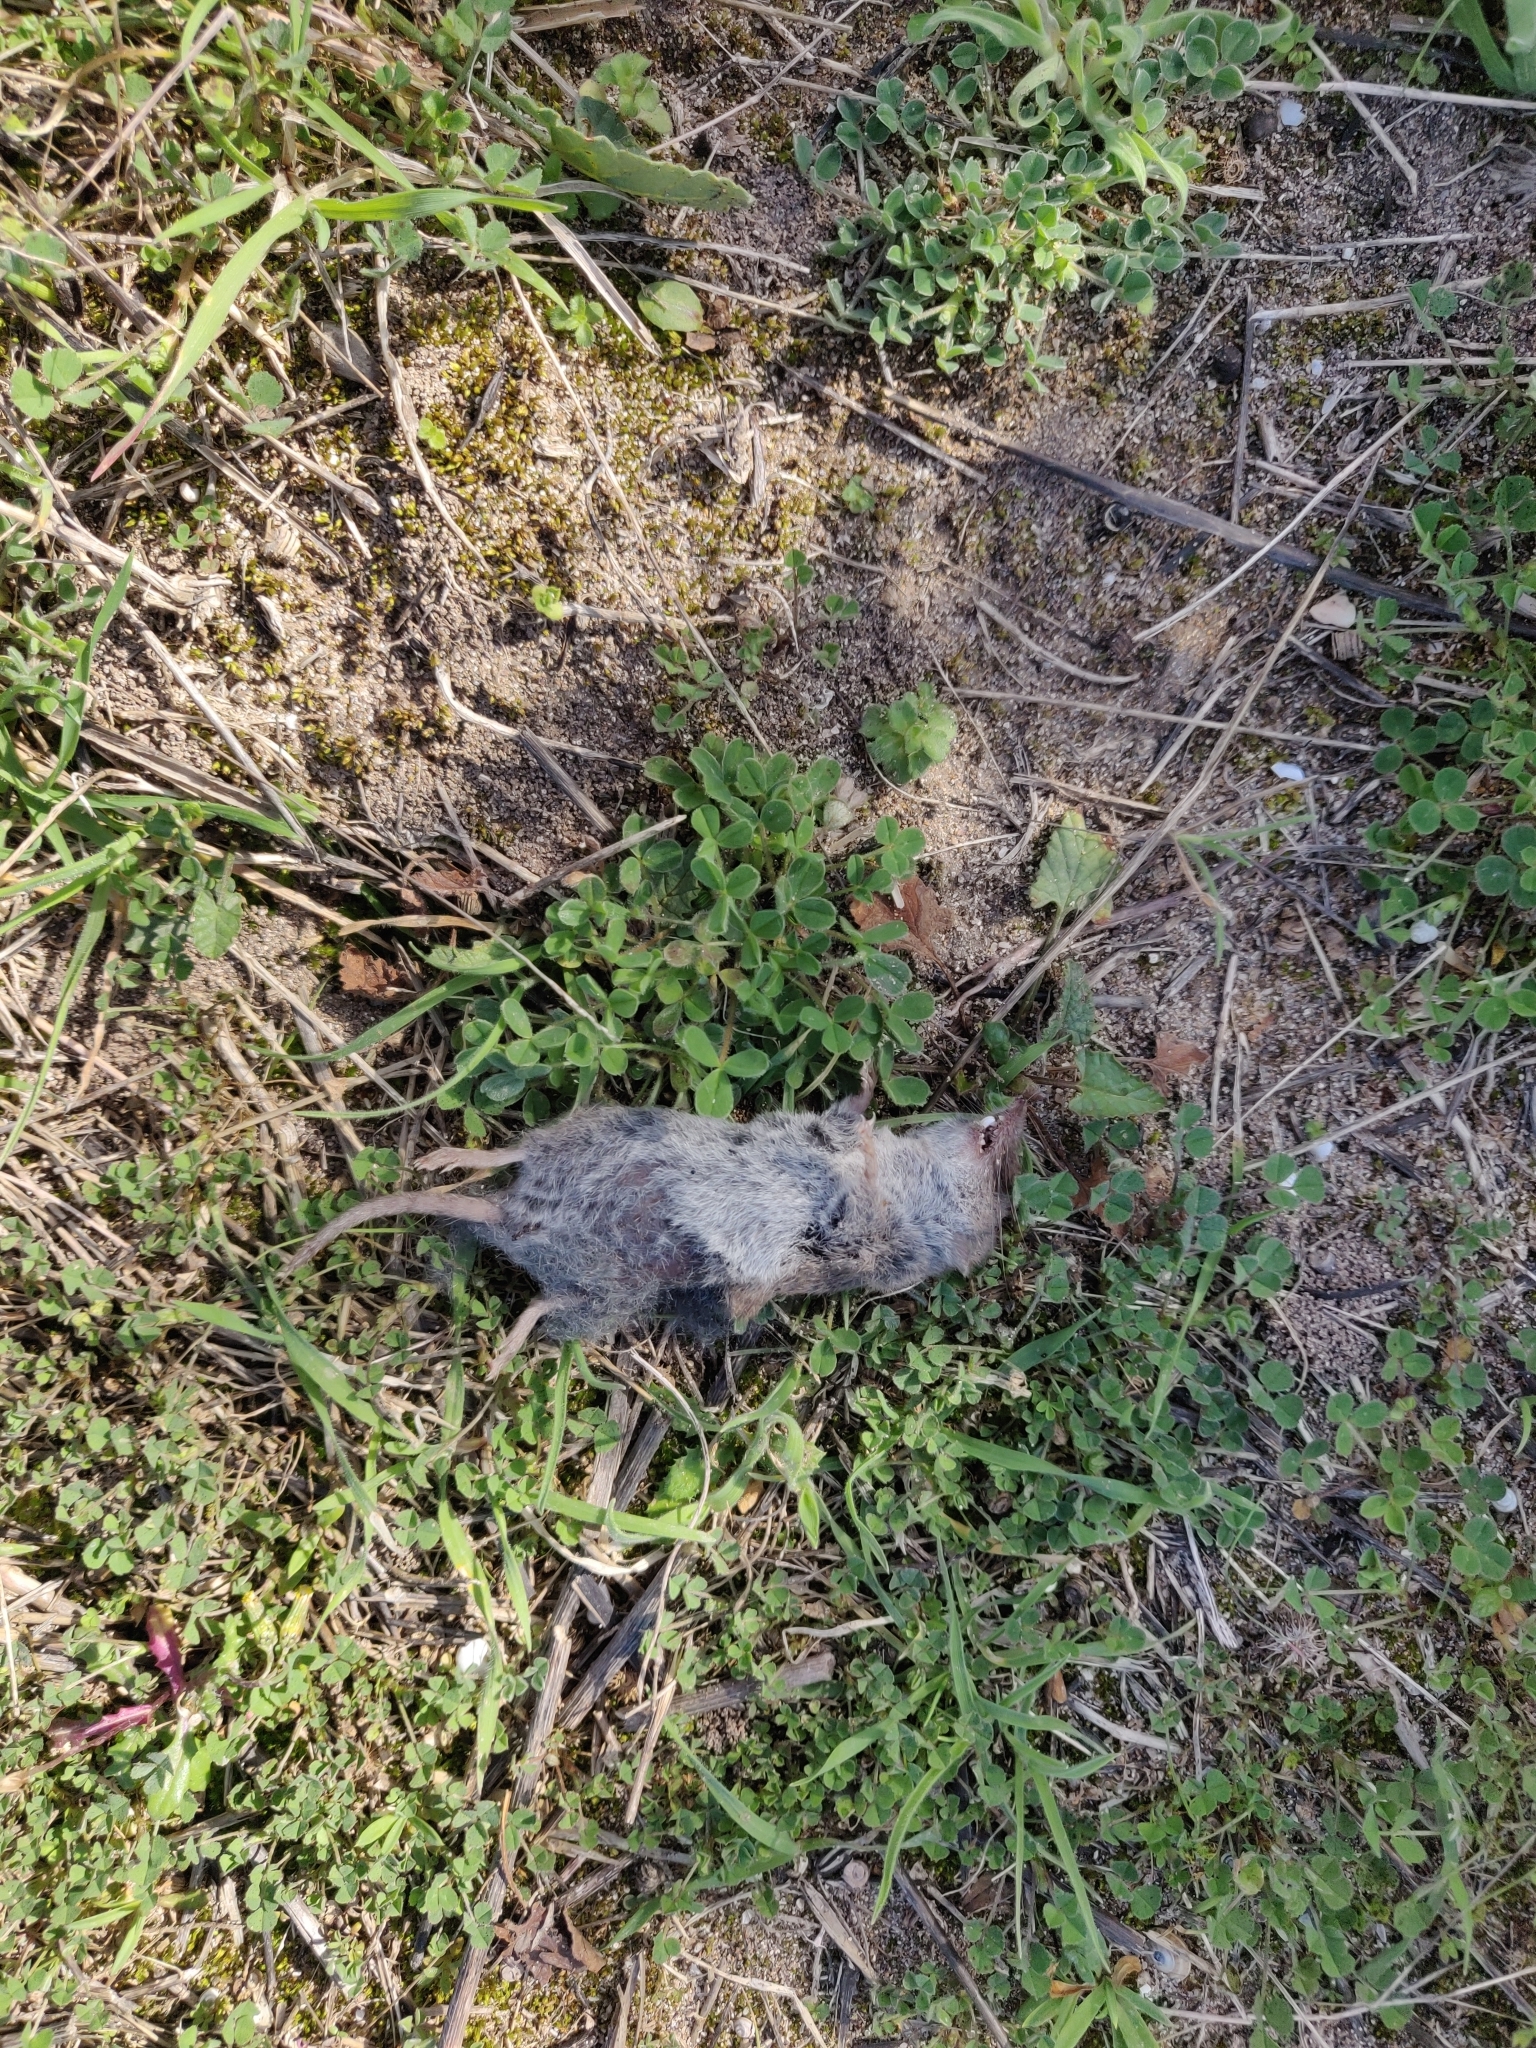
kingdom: Animalia
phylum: Chordata
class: Mammalia
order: Soricomorpha
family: Soricidae
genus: Crocidura
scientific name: Crocidura pachyura
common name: North african white-toothed shrew
